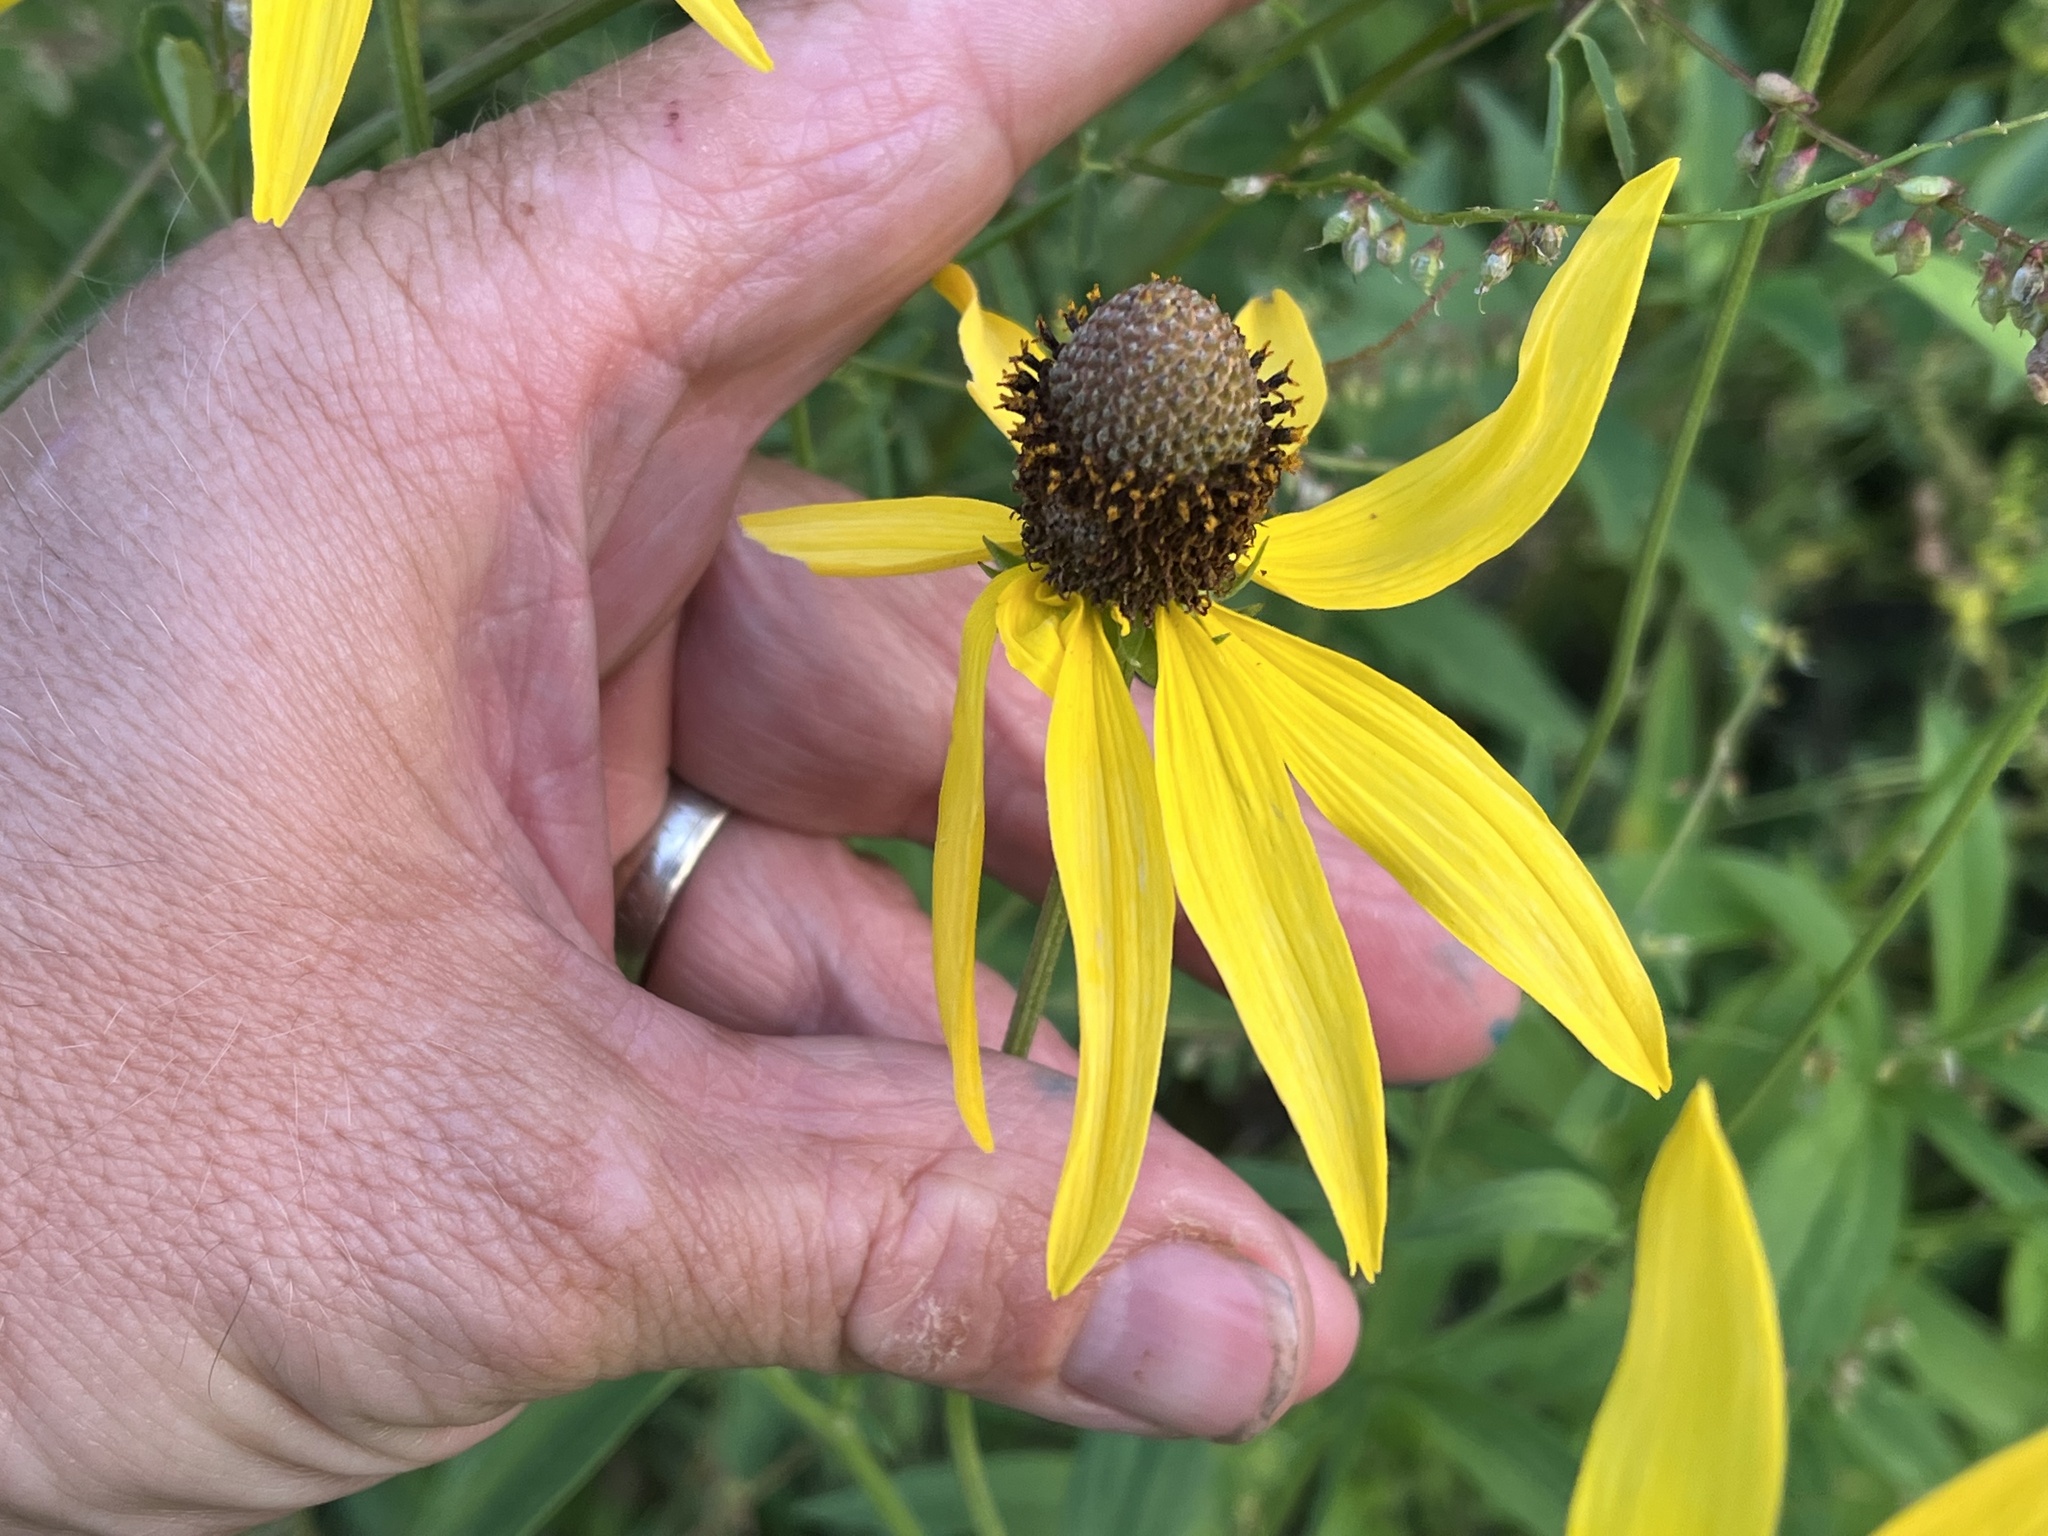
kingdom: Plantae
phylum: Tracheophyta
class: Magnoliopsida
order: Asterales
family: Asteraceae
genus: Ratibida
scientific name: Ratibida pinnata
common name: Drooping prairie-coneflower
